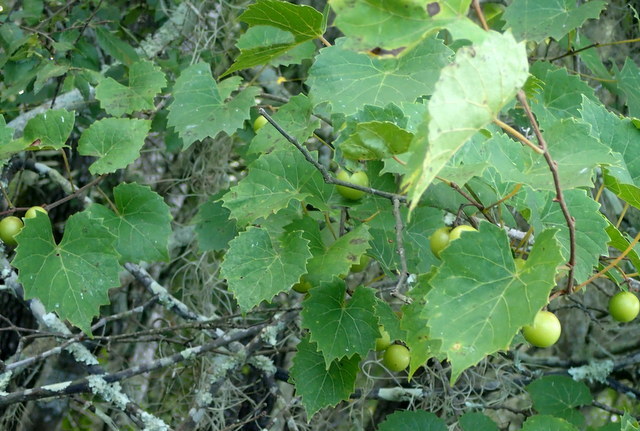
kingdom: Plantae
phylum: Tracheophyta
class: Magnoliopsida
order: Vitales
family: Vitaceae
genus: Vitis
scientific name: Vitis rotundifolia
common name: Muscadine grape
